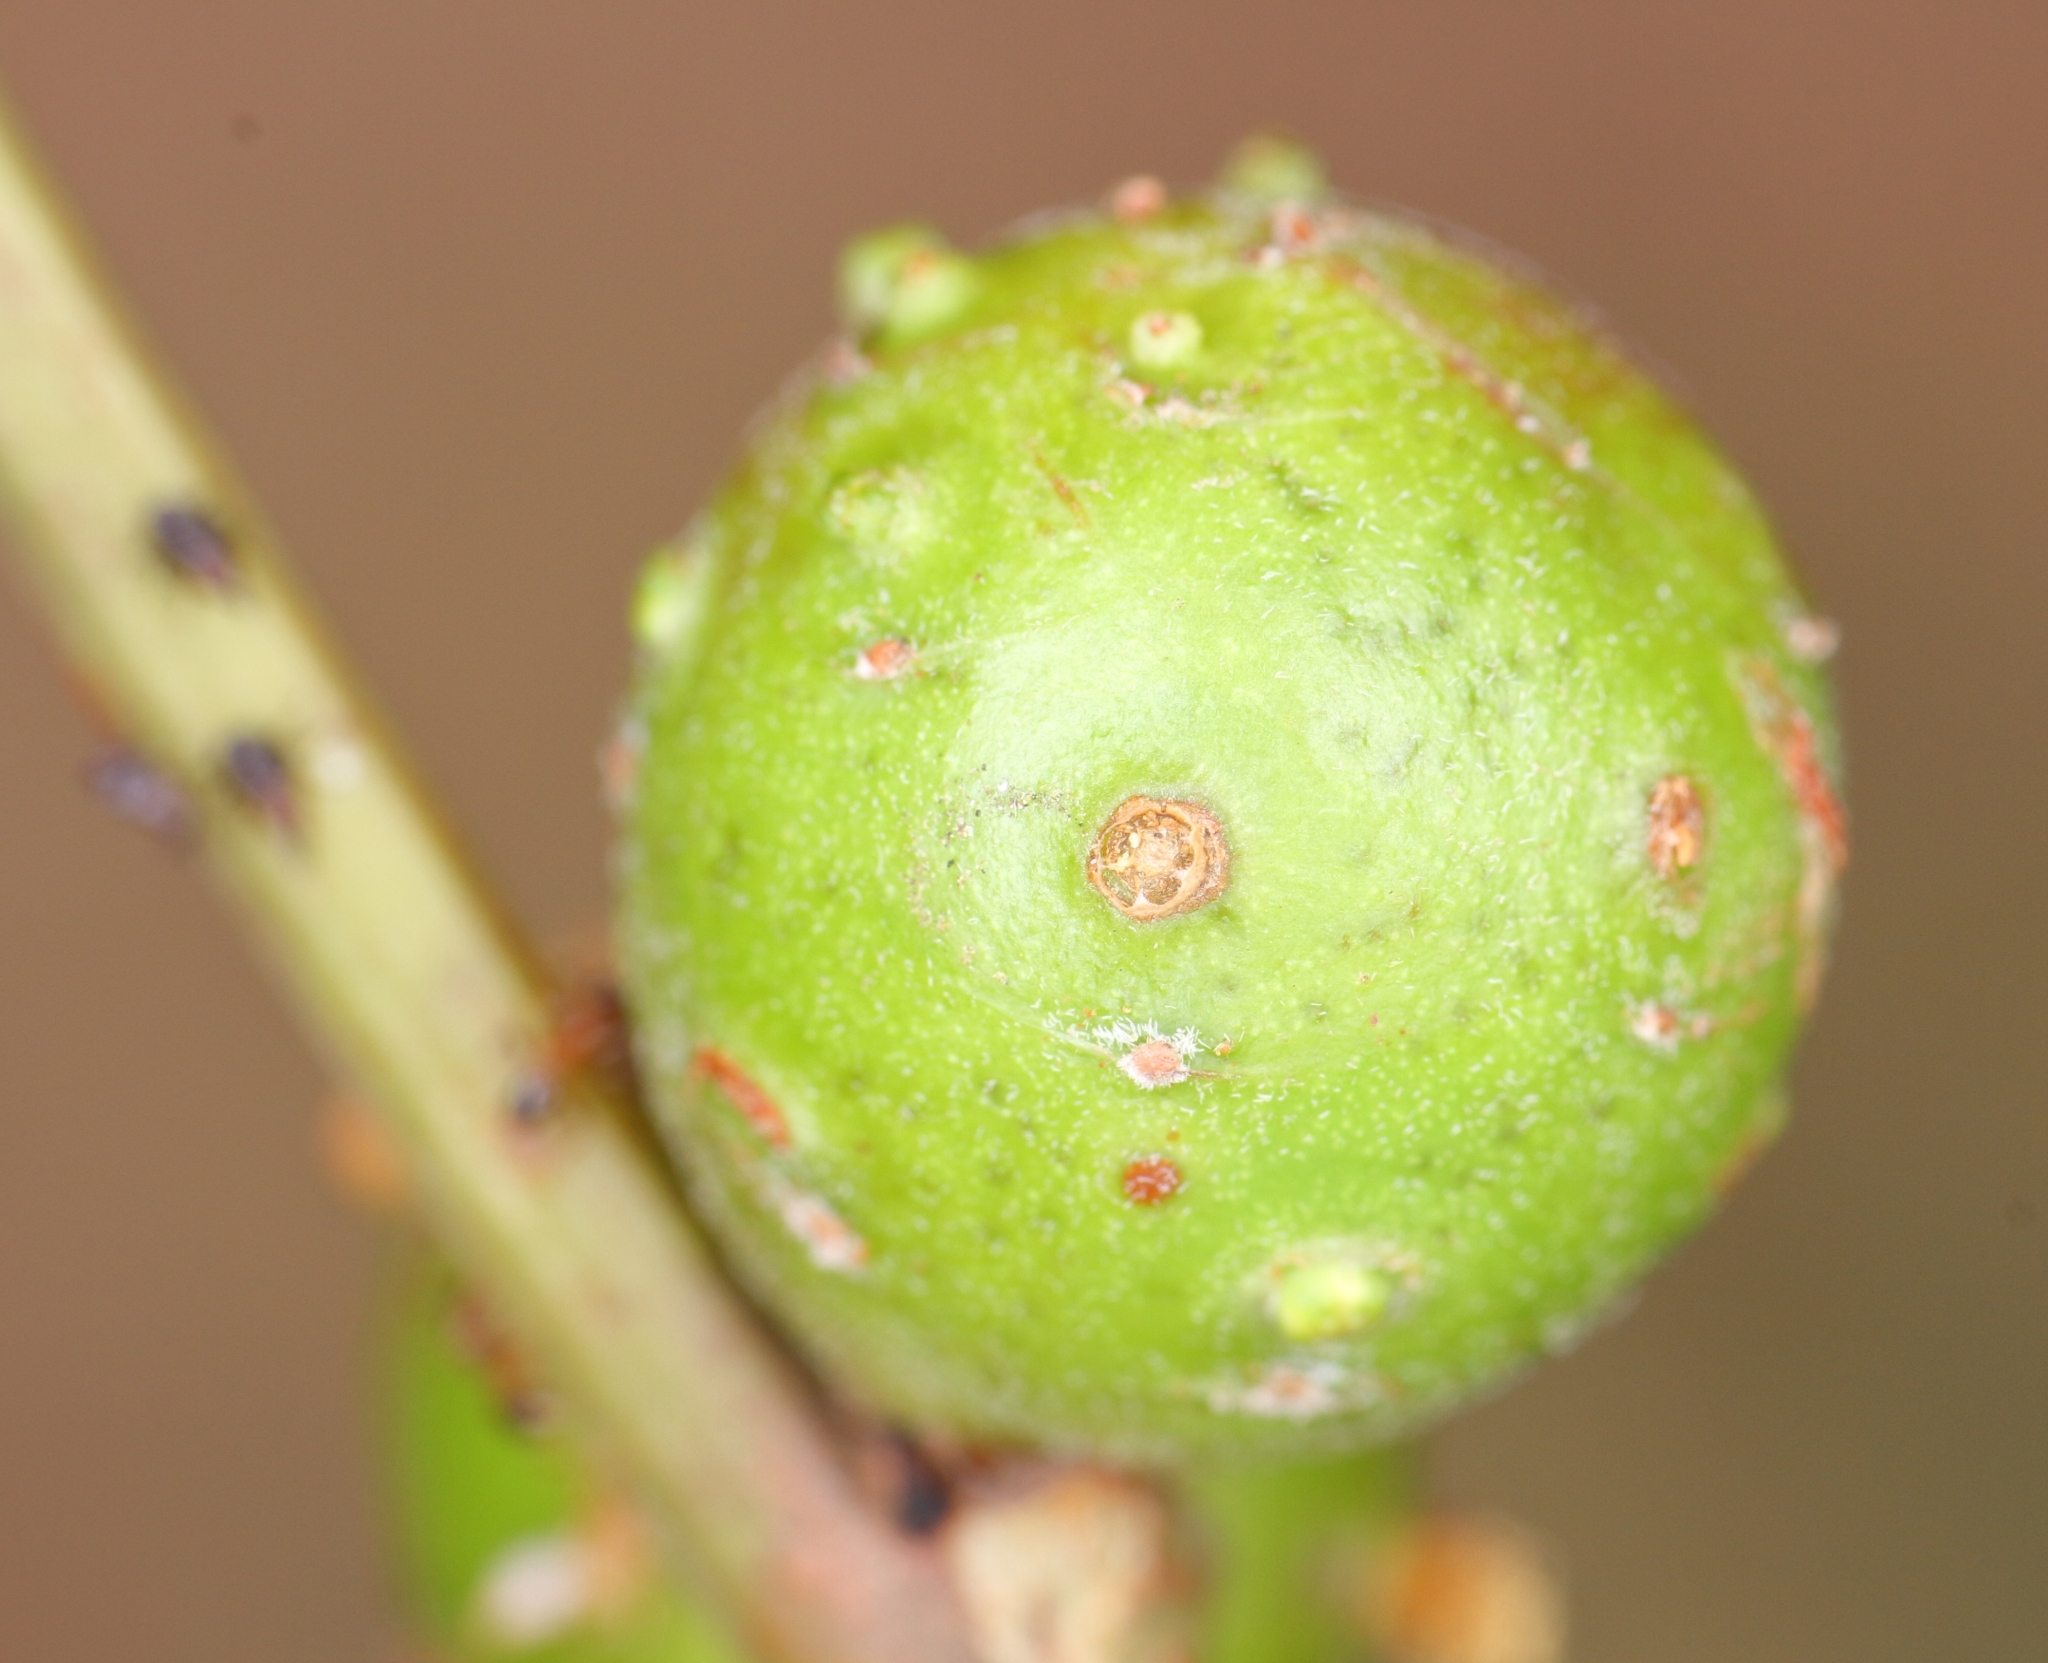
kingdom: Animalia
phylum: Arthropoda
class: Insecta
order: Hymenoptera
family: Pteromalidae
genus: Trichilogaster
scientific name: Trichilogaster acaciaelongifoliae
